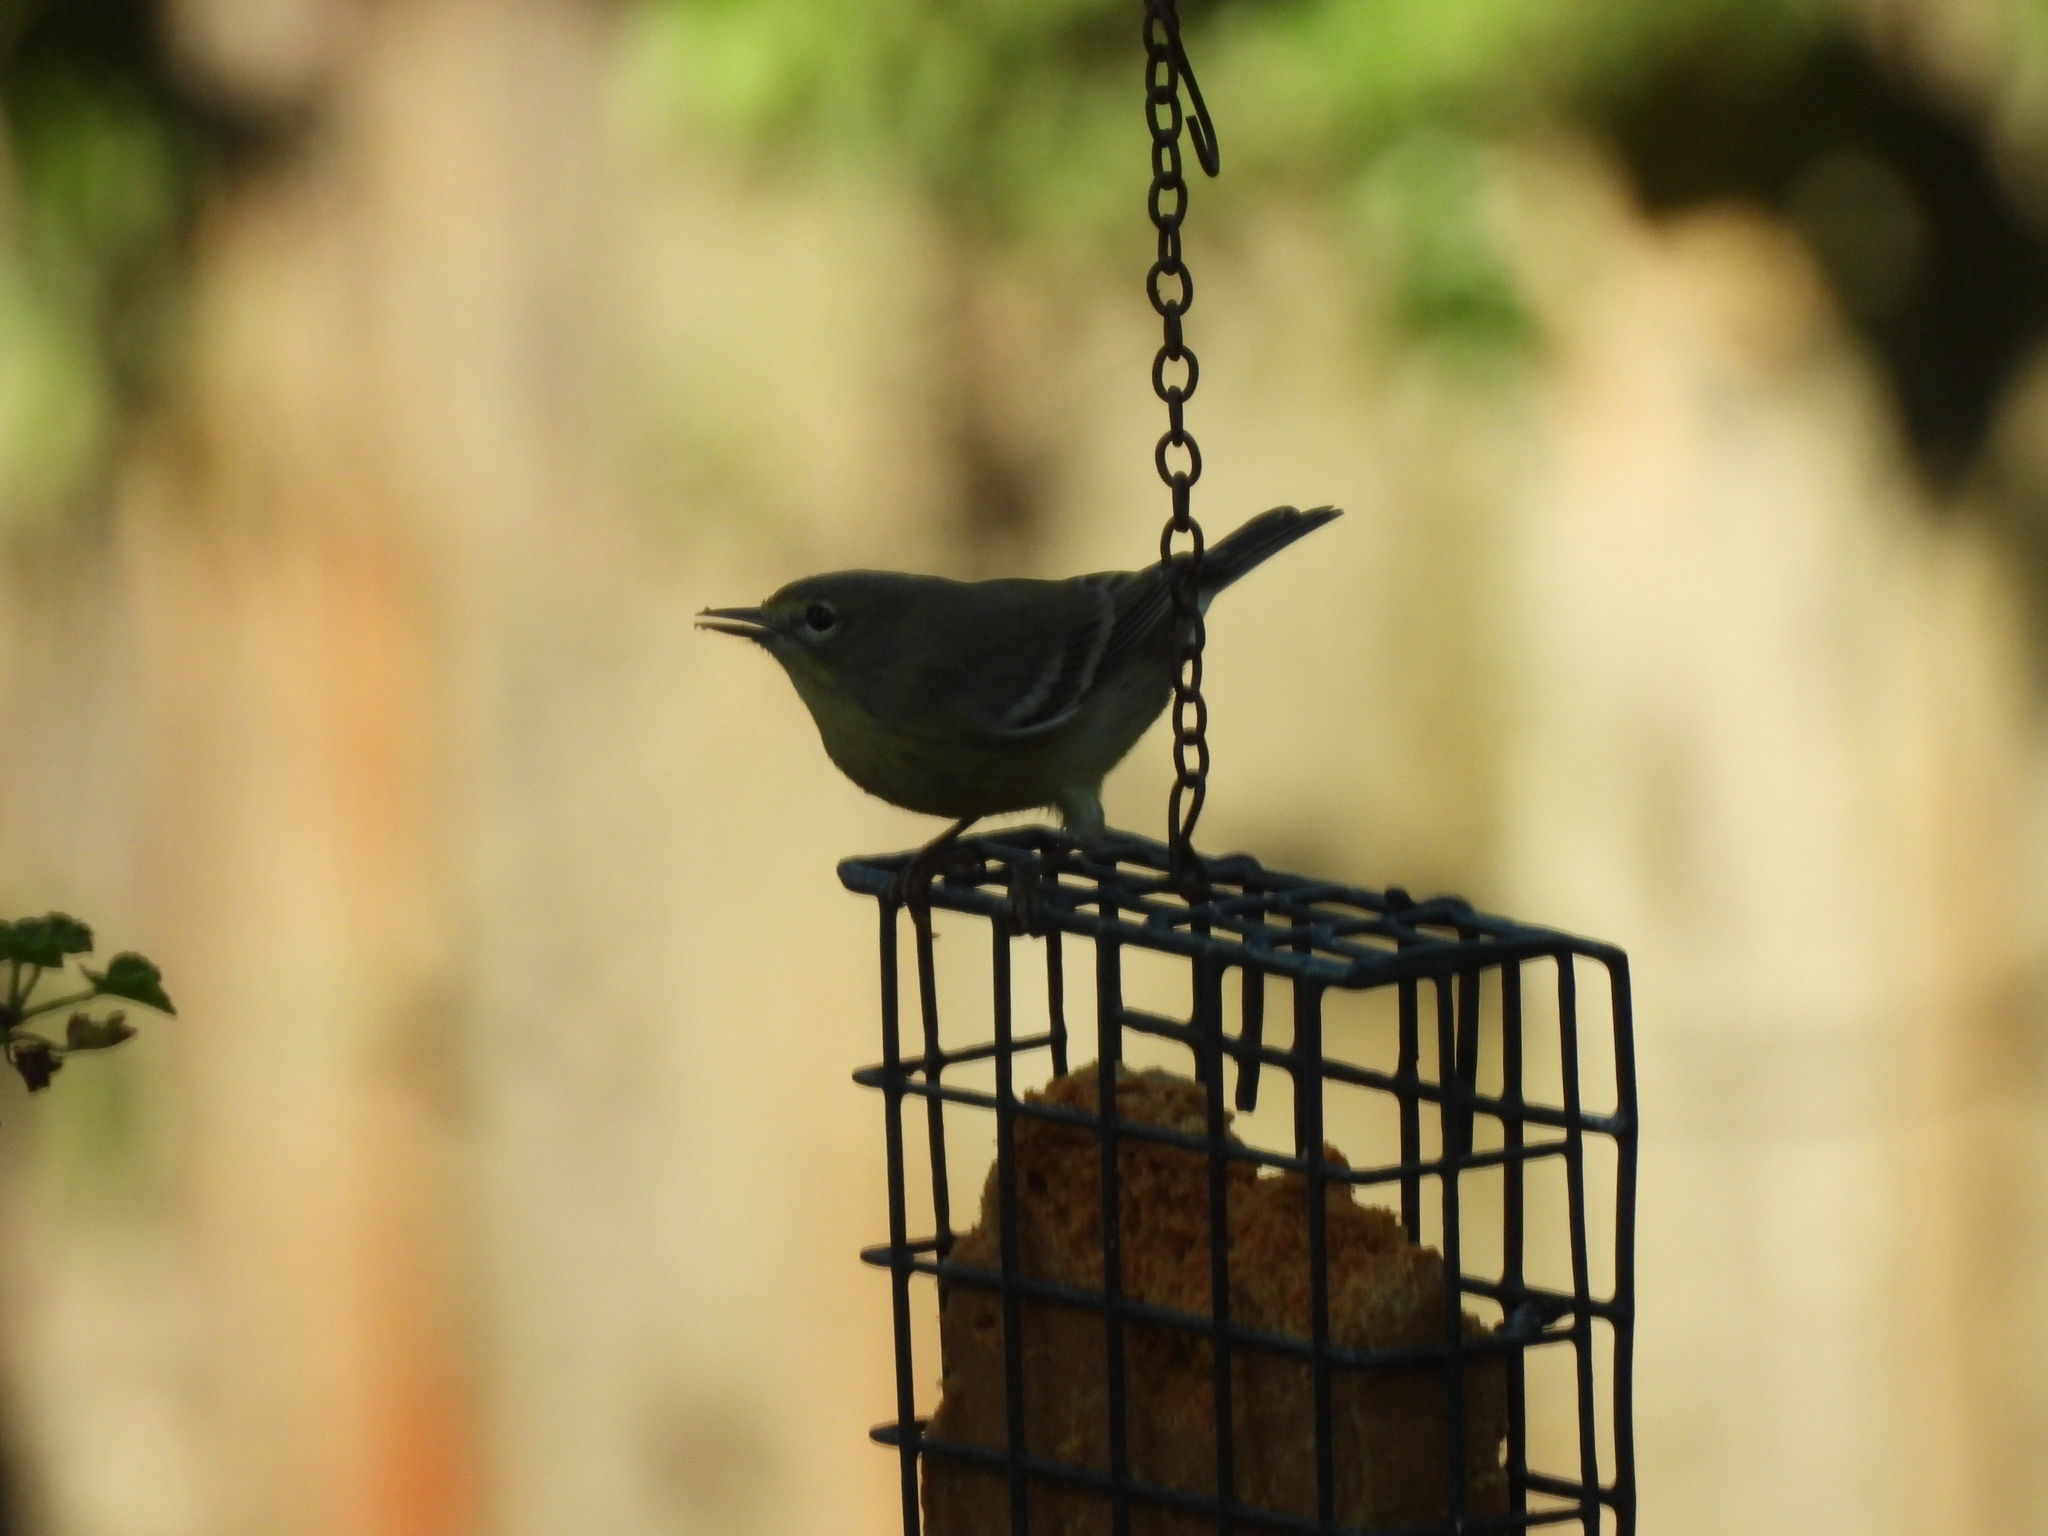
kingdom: Animalia
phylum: Chordata
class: Aves
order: Passeriformes
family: Parulidae
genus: Setophaga
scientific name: Setophaga pinus
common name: Pine warbler
